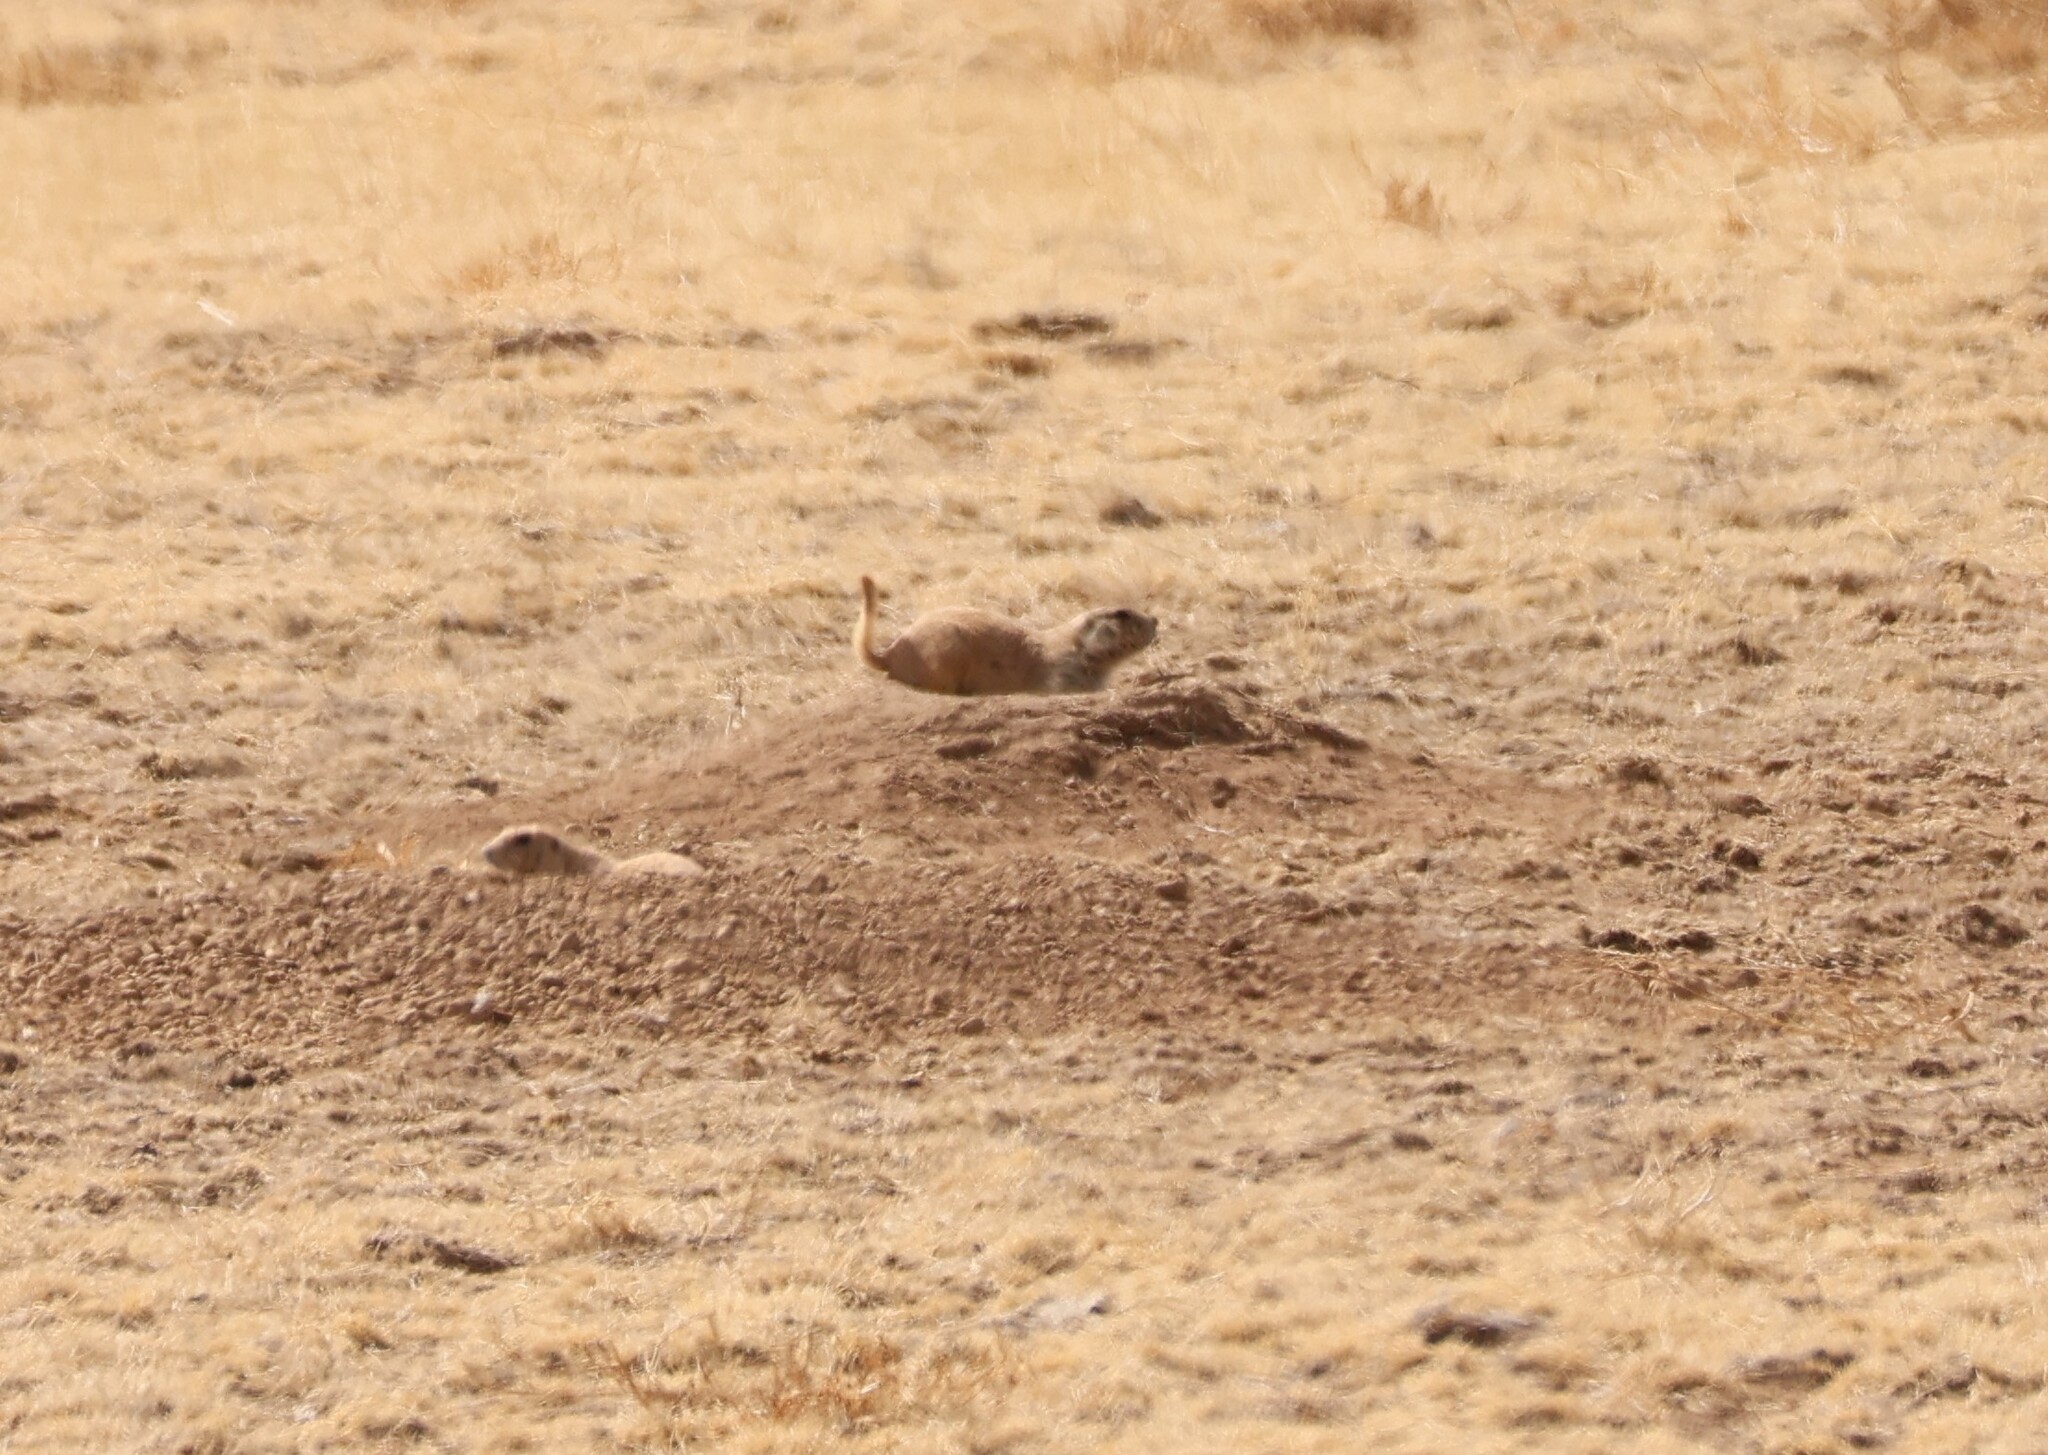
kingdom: Animalia
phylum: Chordata
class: Mammalia
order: Rodentia
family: Sciuridae
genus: Cynomys
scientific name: Cynomys ludovicianus
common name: Black-tailed prairie dog
